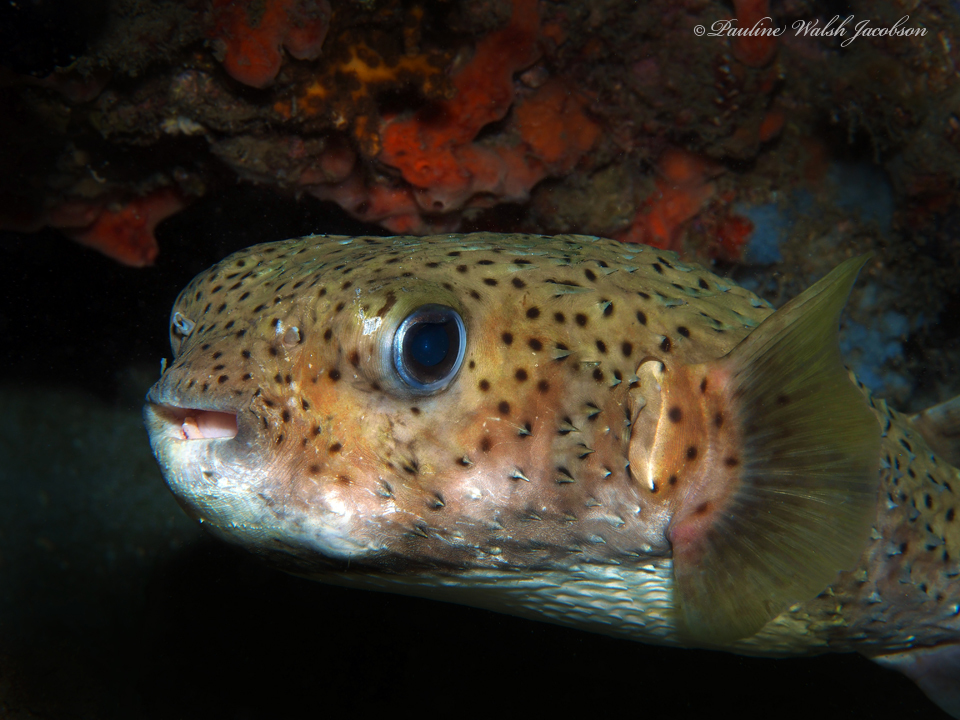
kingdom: Animalia
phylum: Chordata
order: Tetraodontiformes
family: Diodontidae
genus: Diodon
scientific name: Diodon hystrix
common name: Giant porcupinefish
